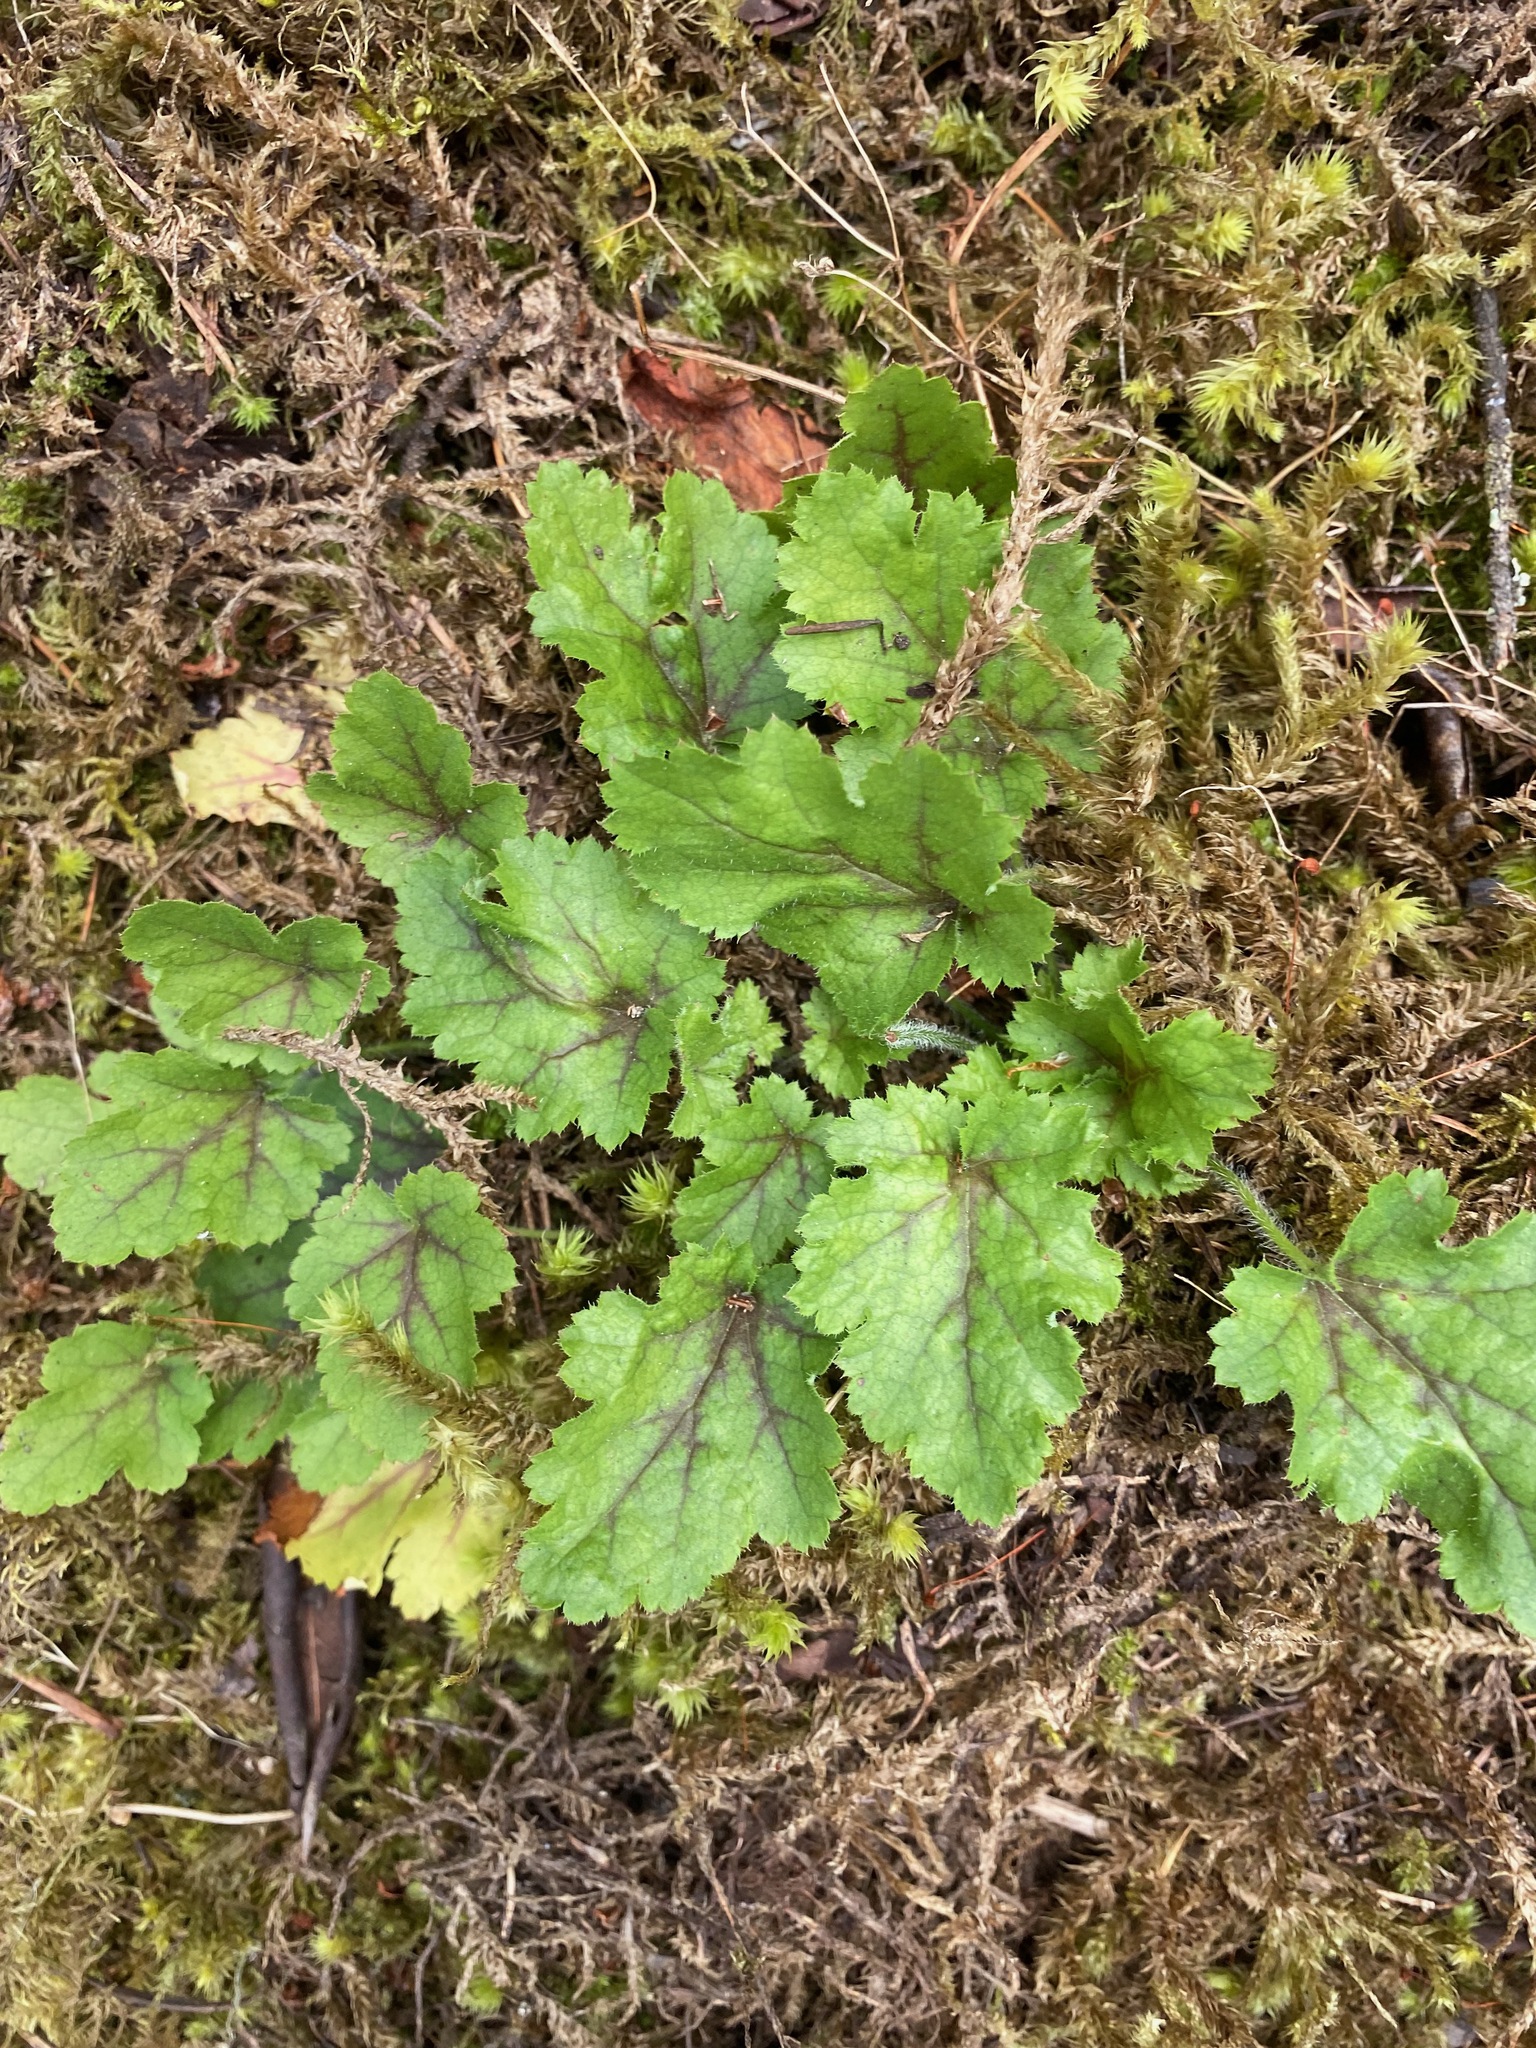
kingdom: Plantae
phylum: Tracheophyta
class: Magnoliopsida
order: Saxifragales
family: Saxifragaceae
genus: Heuchera
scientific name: Heuchera micrantha
